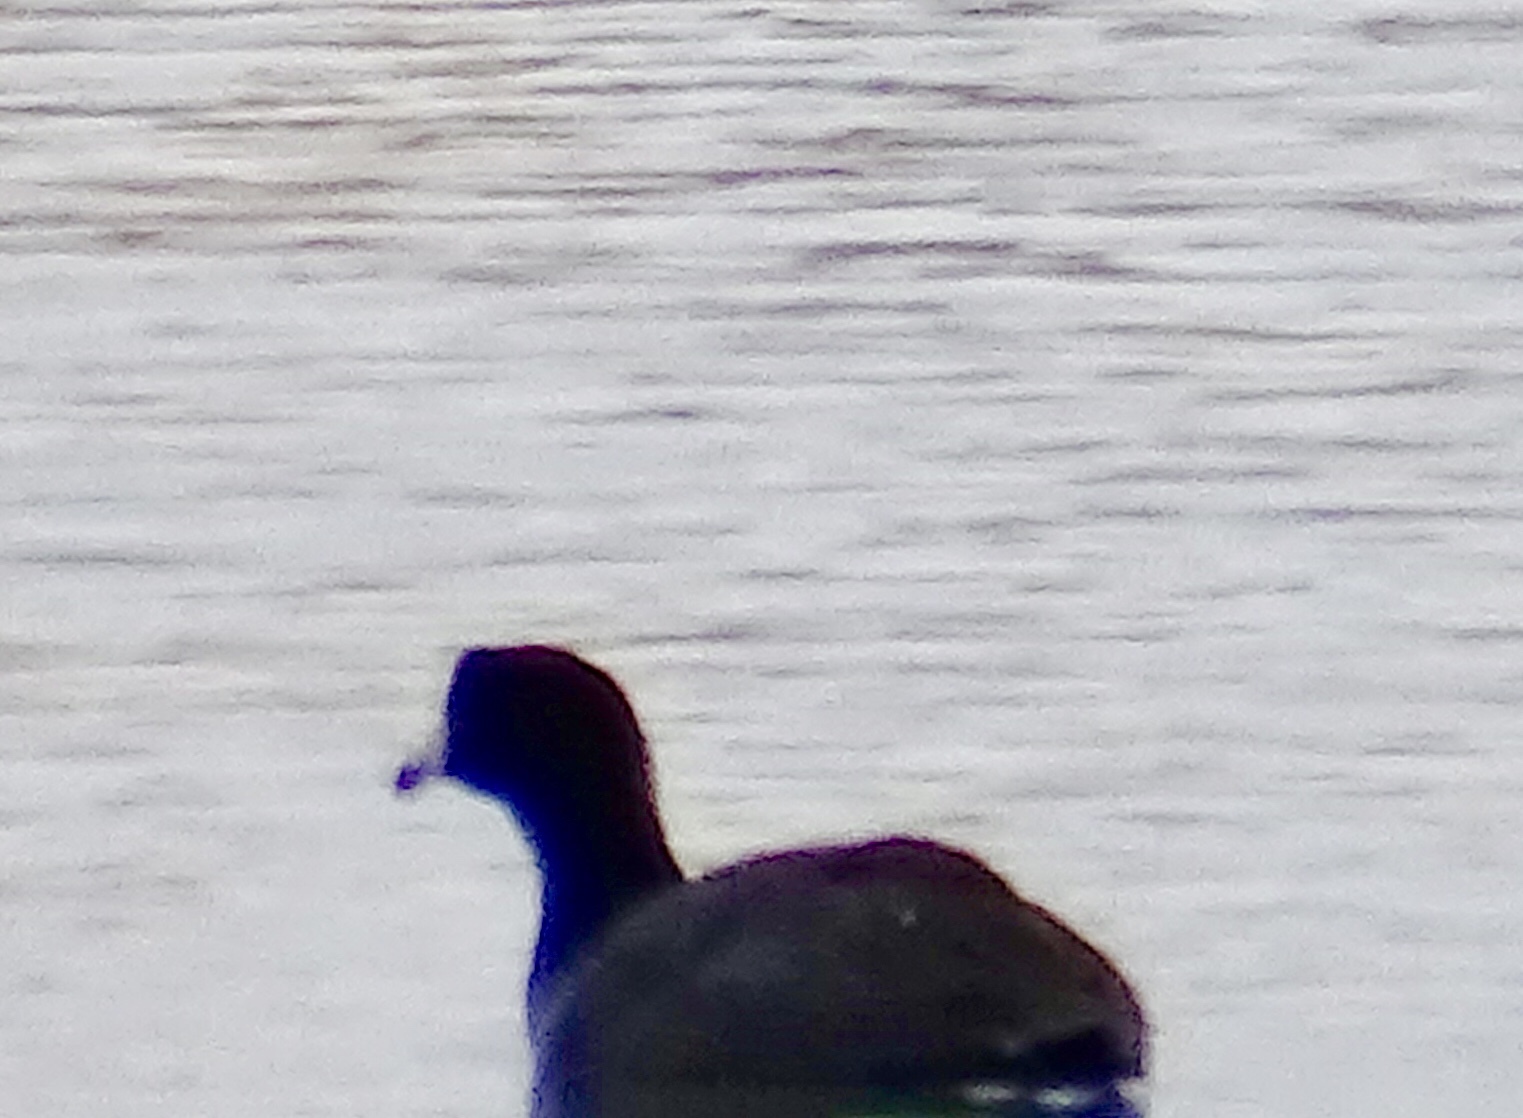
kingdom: Animalia
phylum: Chordata
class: Aves
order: Gruiformes
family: Rallidae
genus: Fulica
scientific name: Fulica americana
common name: American coot
